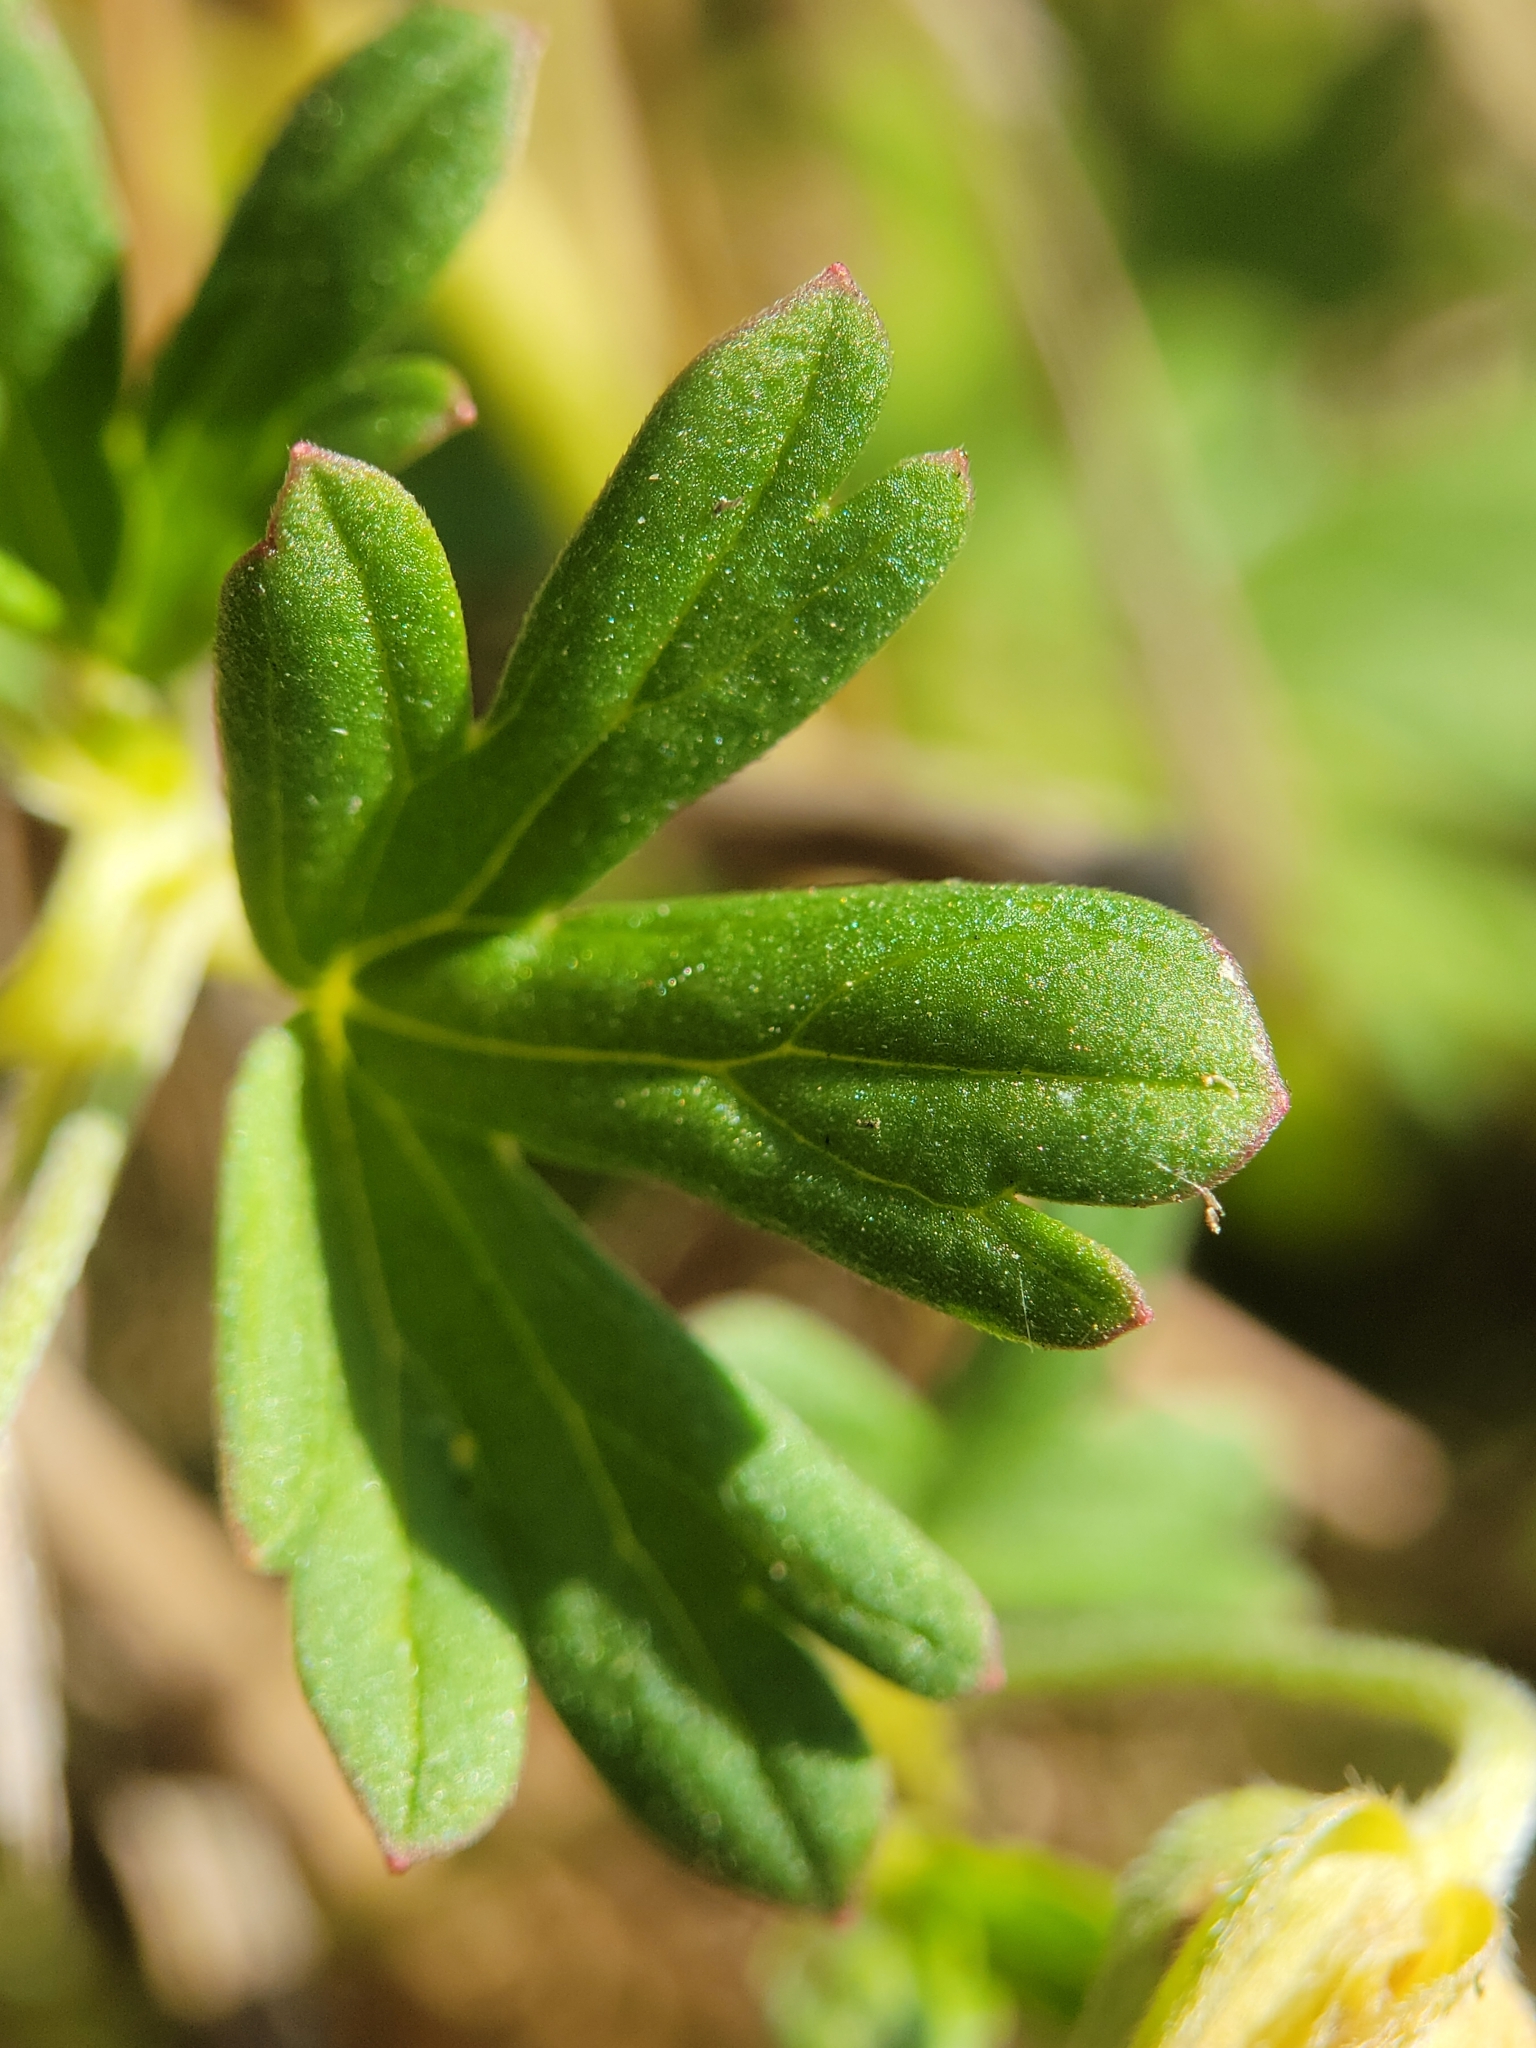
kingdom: Plantae
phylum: Tracheophyta
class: Magnoliopsida
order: Geraniales
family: Geraniaceae
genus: Geranium
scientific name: Geranium core-core
